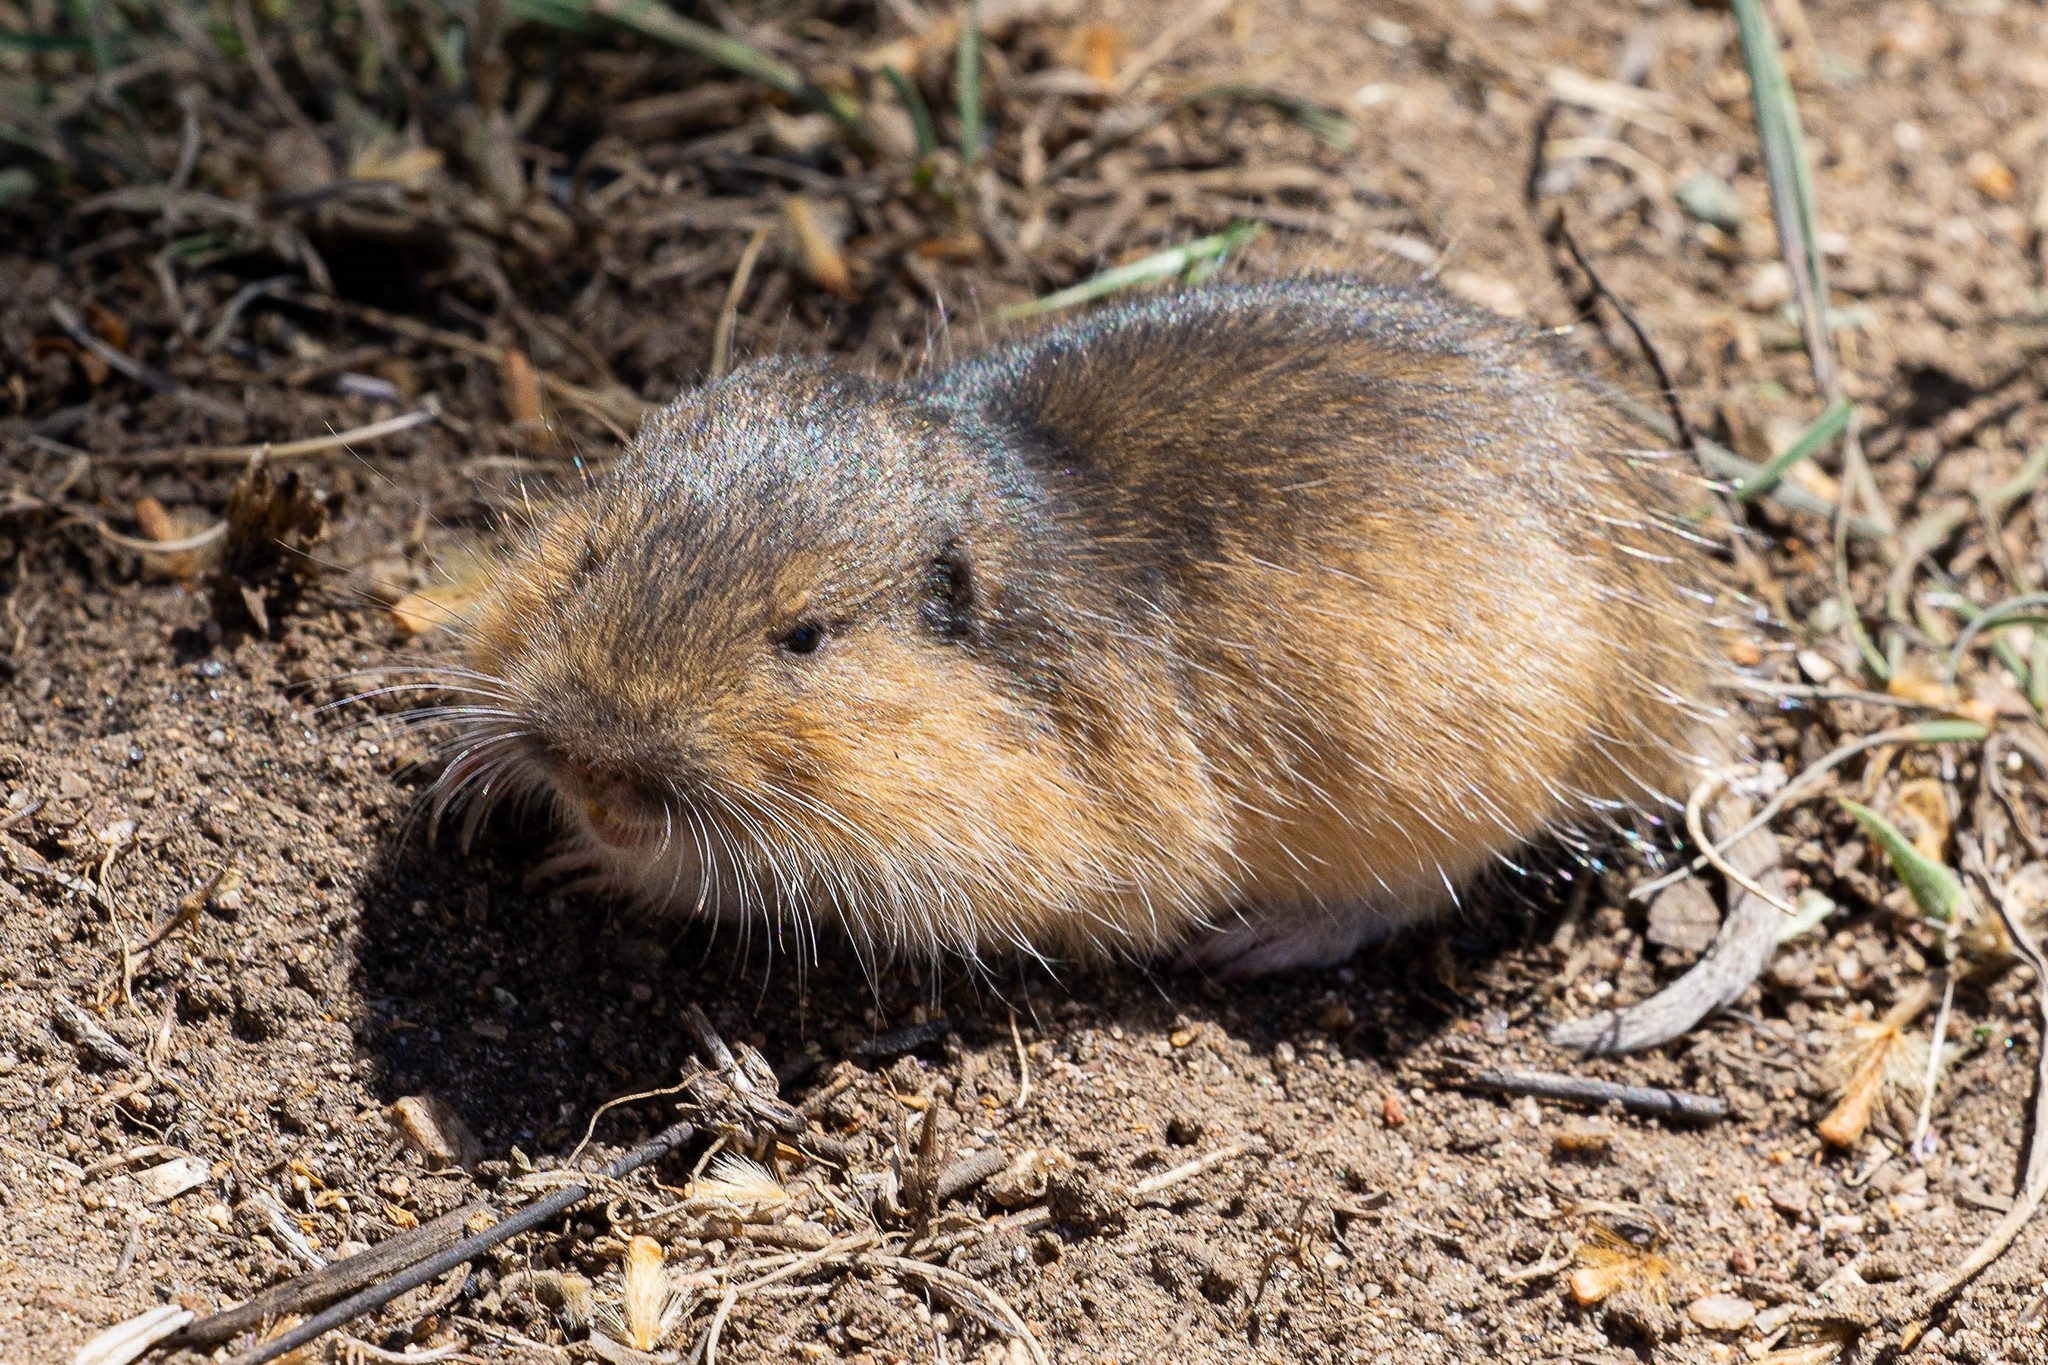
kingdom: Animalia
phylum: Chordata
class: Mammalia
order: Rodentia
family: Geomyidae
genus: Thomomys
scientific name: Thomomys bottae
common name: Botta's pocket gopher
